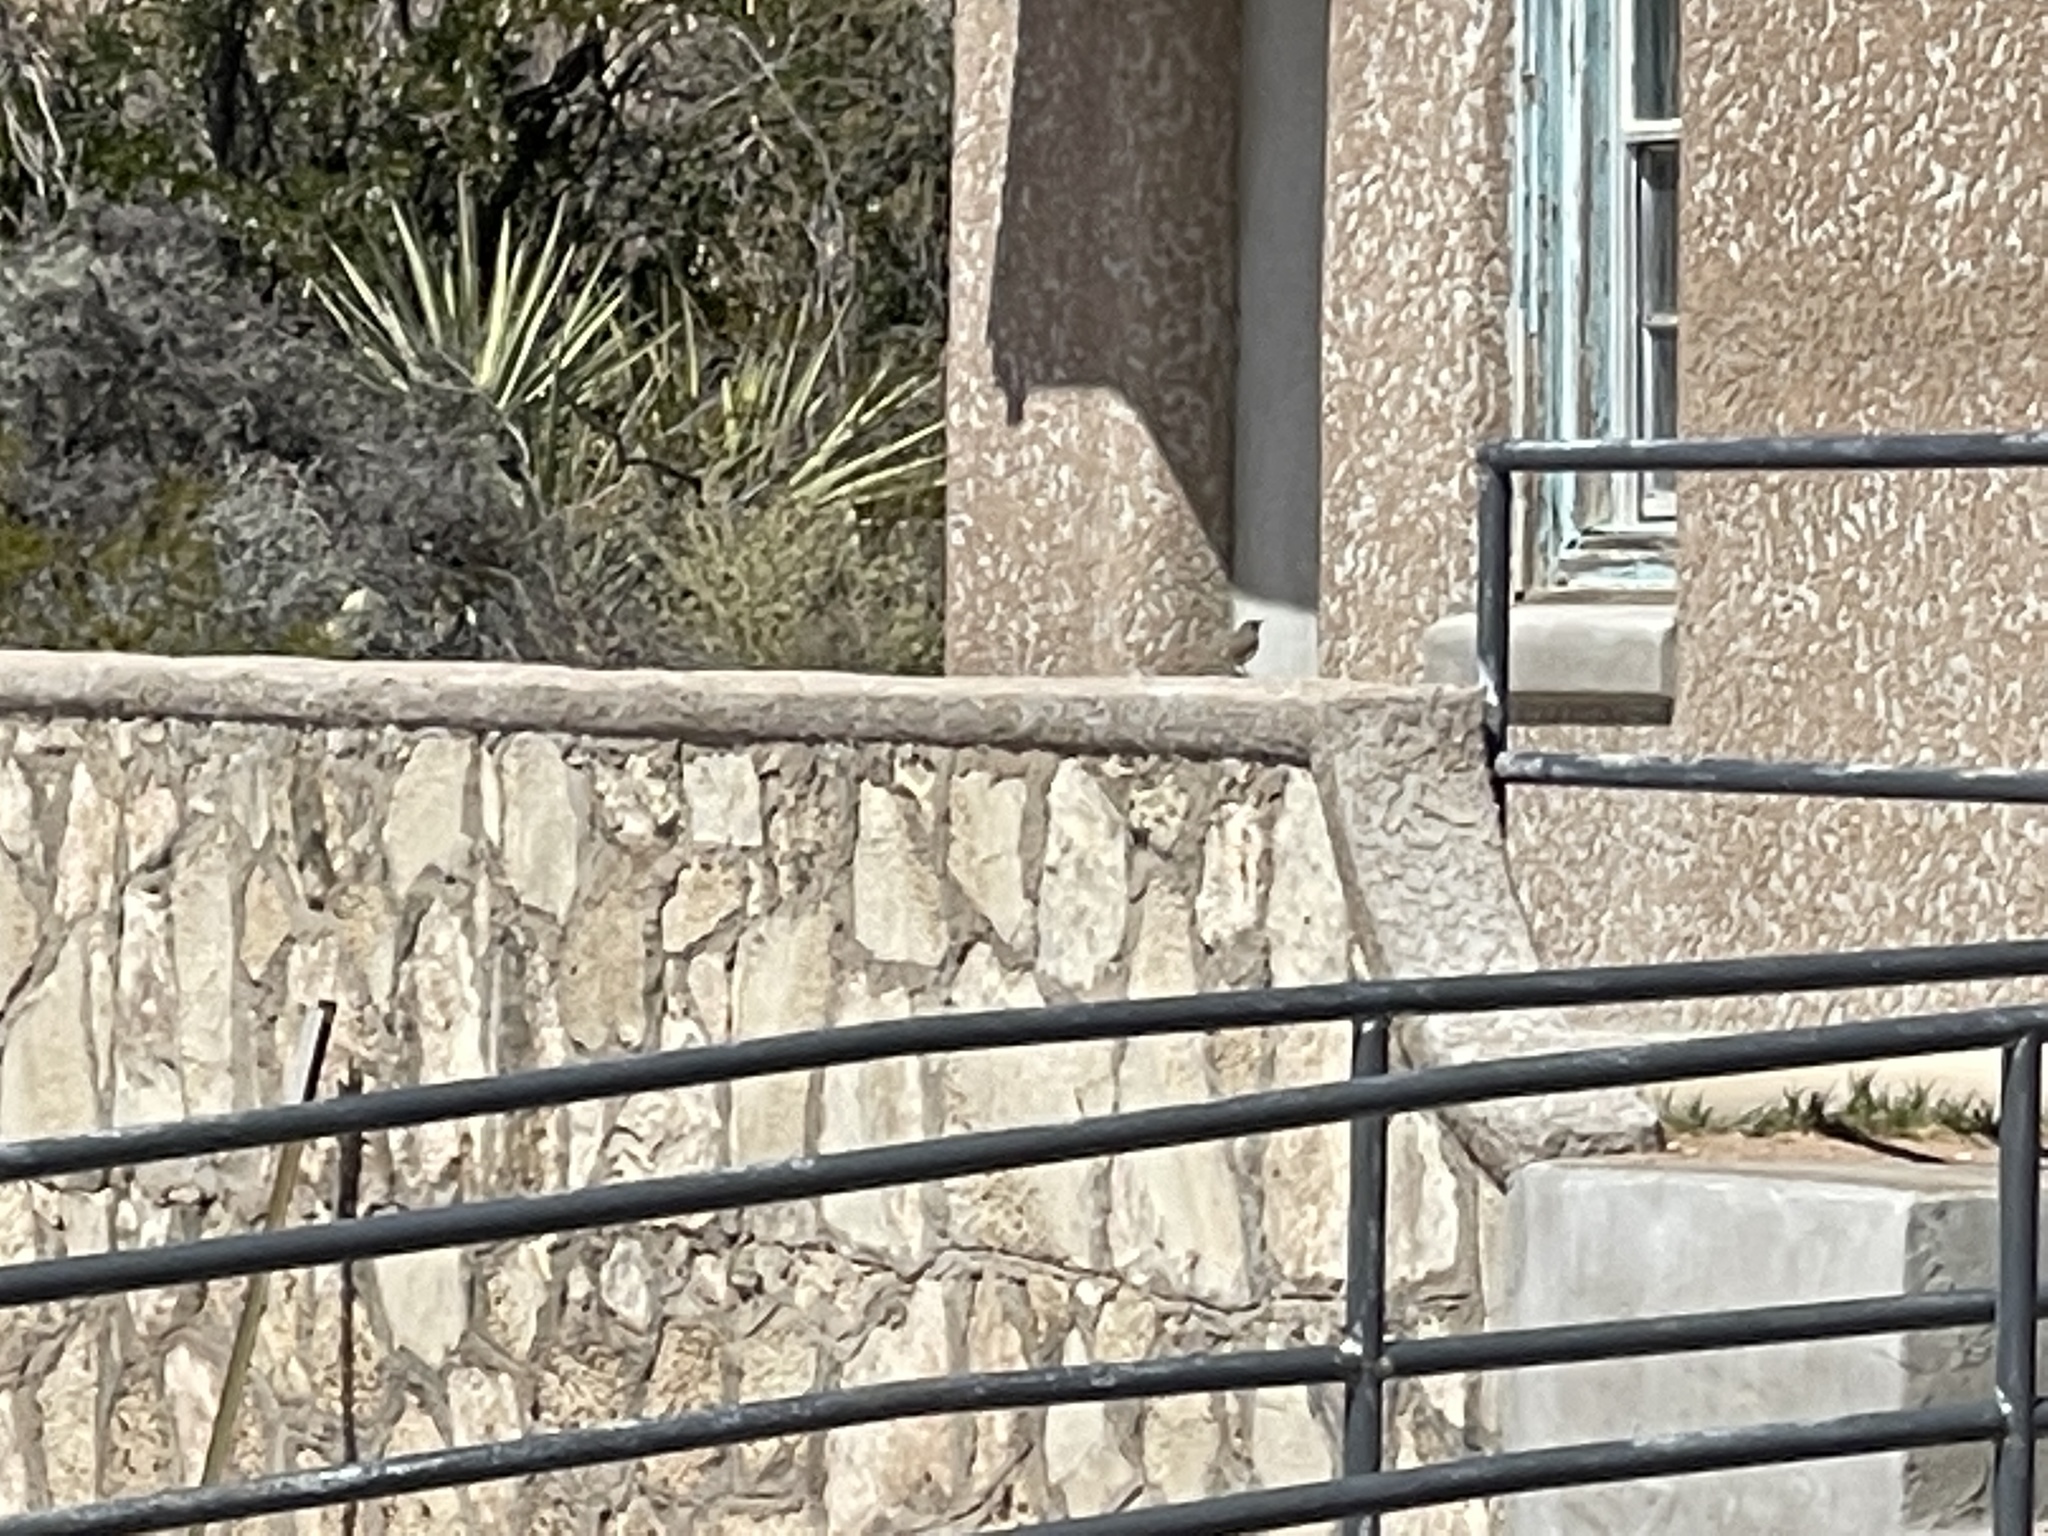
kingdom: Animalia
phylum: Chordata
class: Aves
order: Passeriformes
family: Troglodytidae
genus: Salpinctes
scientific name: Salpinctes obsoletus
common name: Rock wren
